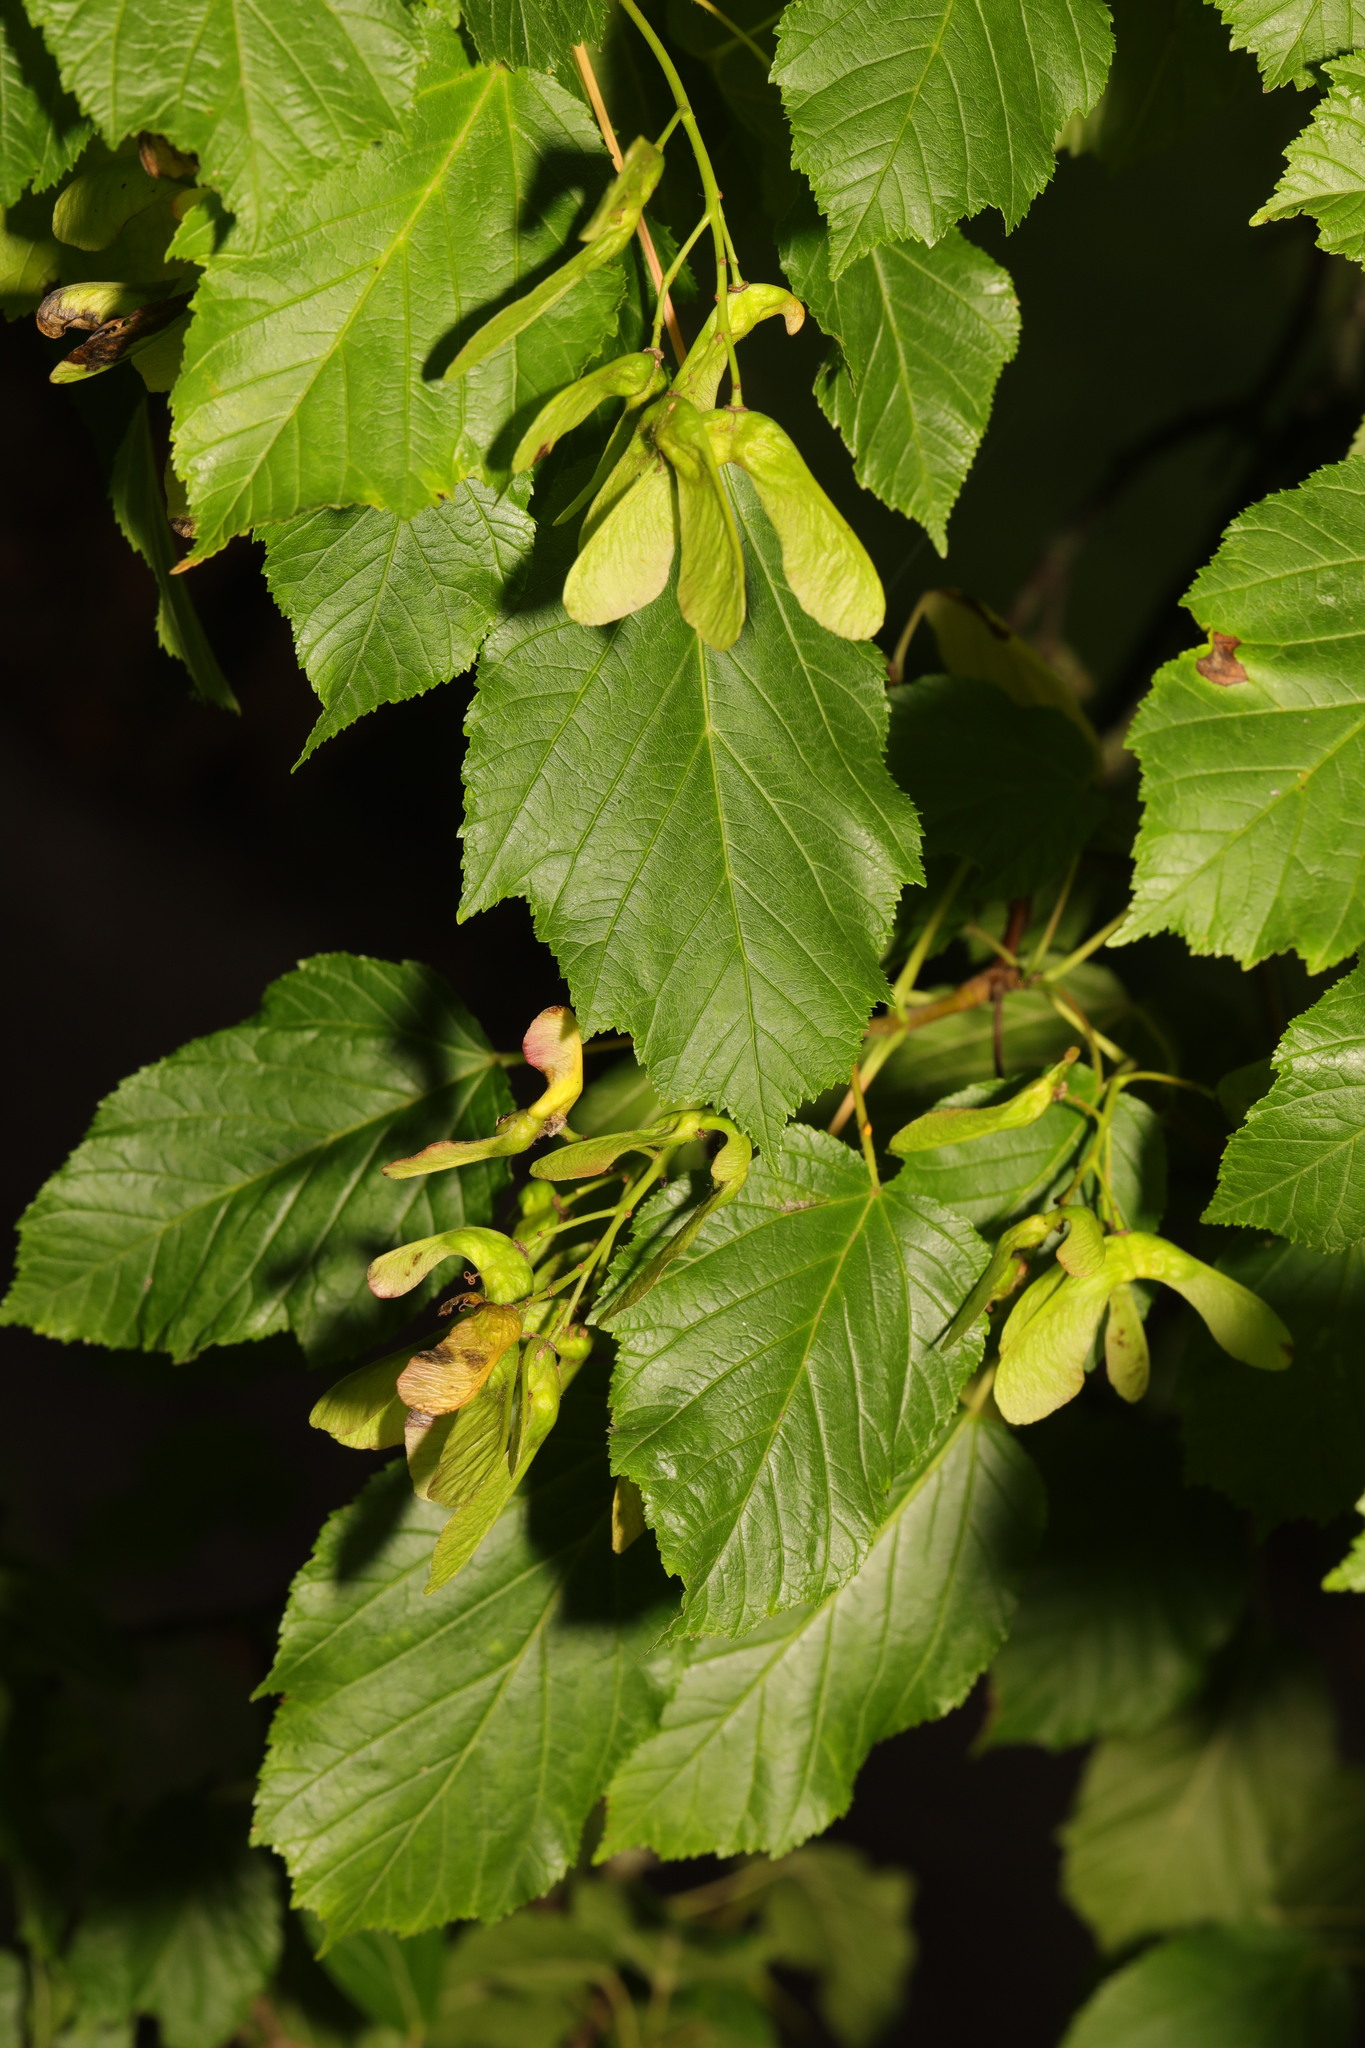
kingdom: Plantae
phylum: Tracheophyta
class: Magnoliopsida
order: Sapindales
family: Sapindaceae
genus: Acer
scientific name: Acer tataricum
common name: Tartar maple
